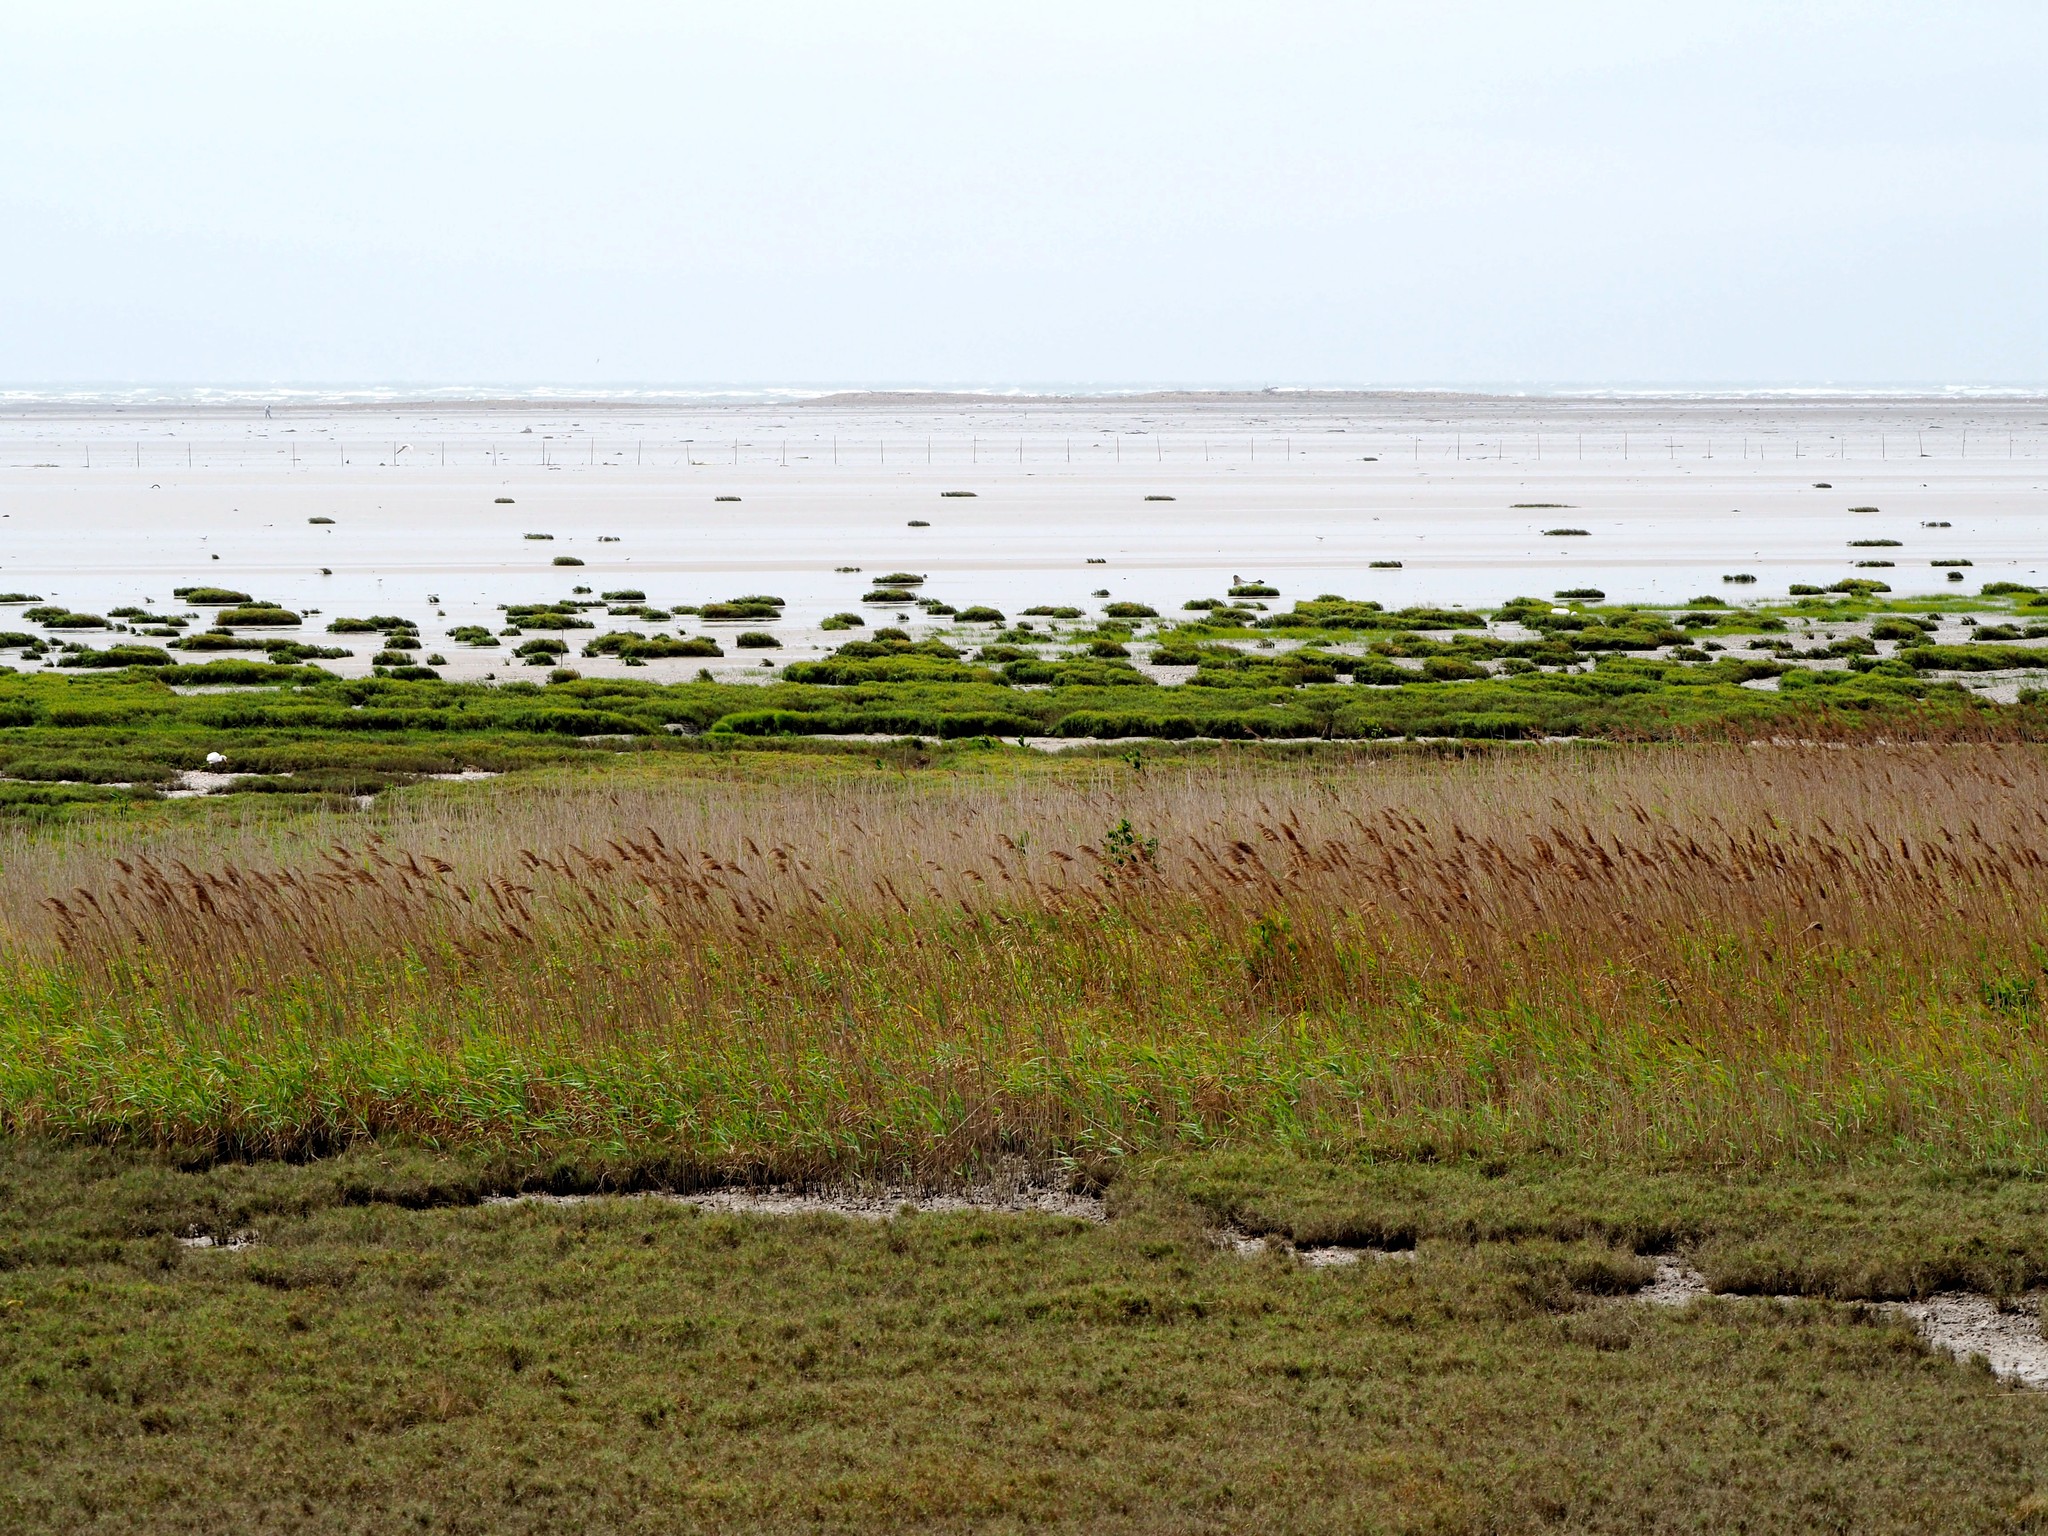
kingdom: Plantae
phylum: Tracheophyta
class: Liliopsida
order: Poales
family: Poaceae
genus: Phragmites
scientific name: Phragmites australis
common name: Common reed
